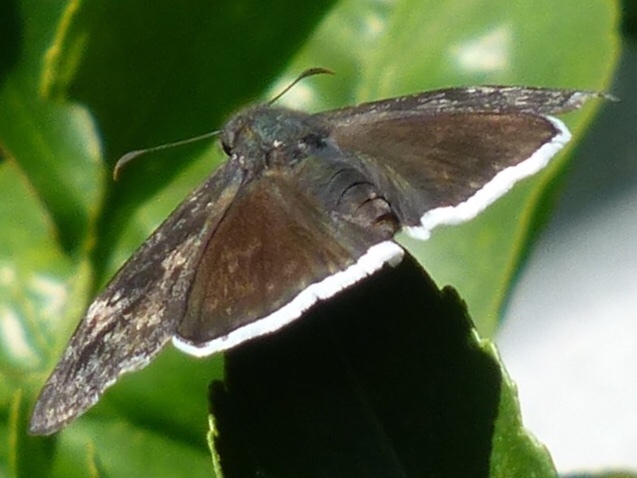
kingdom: Animalia
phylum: Arthropoda
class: Insecta
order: Lepidoptera
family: Hesperiidae
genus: Erynnis
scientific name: Erynnis funeralis
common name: Funereal duskywing
